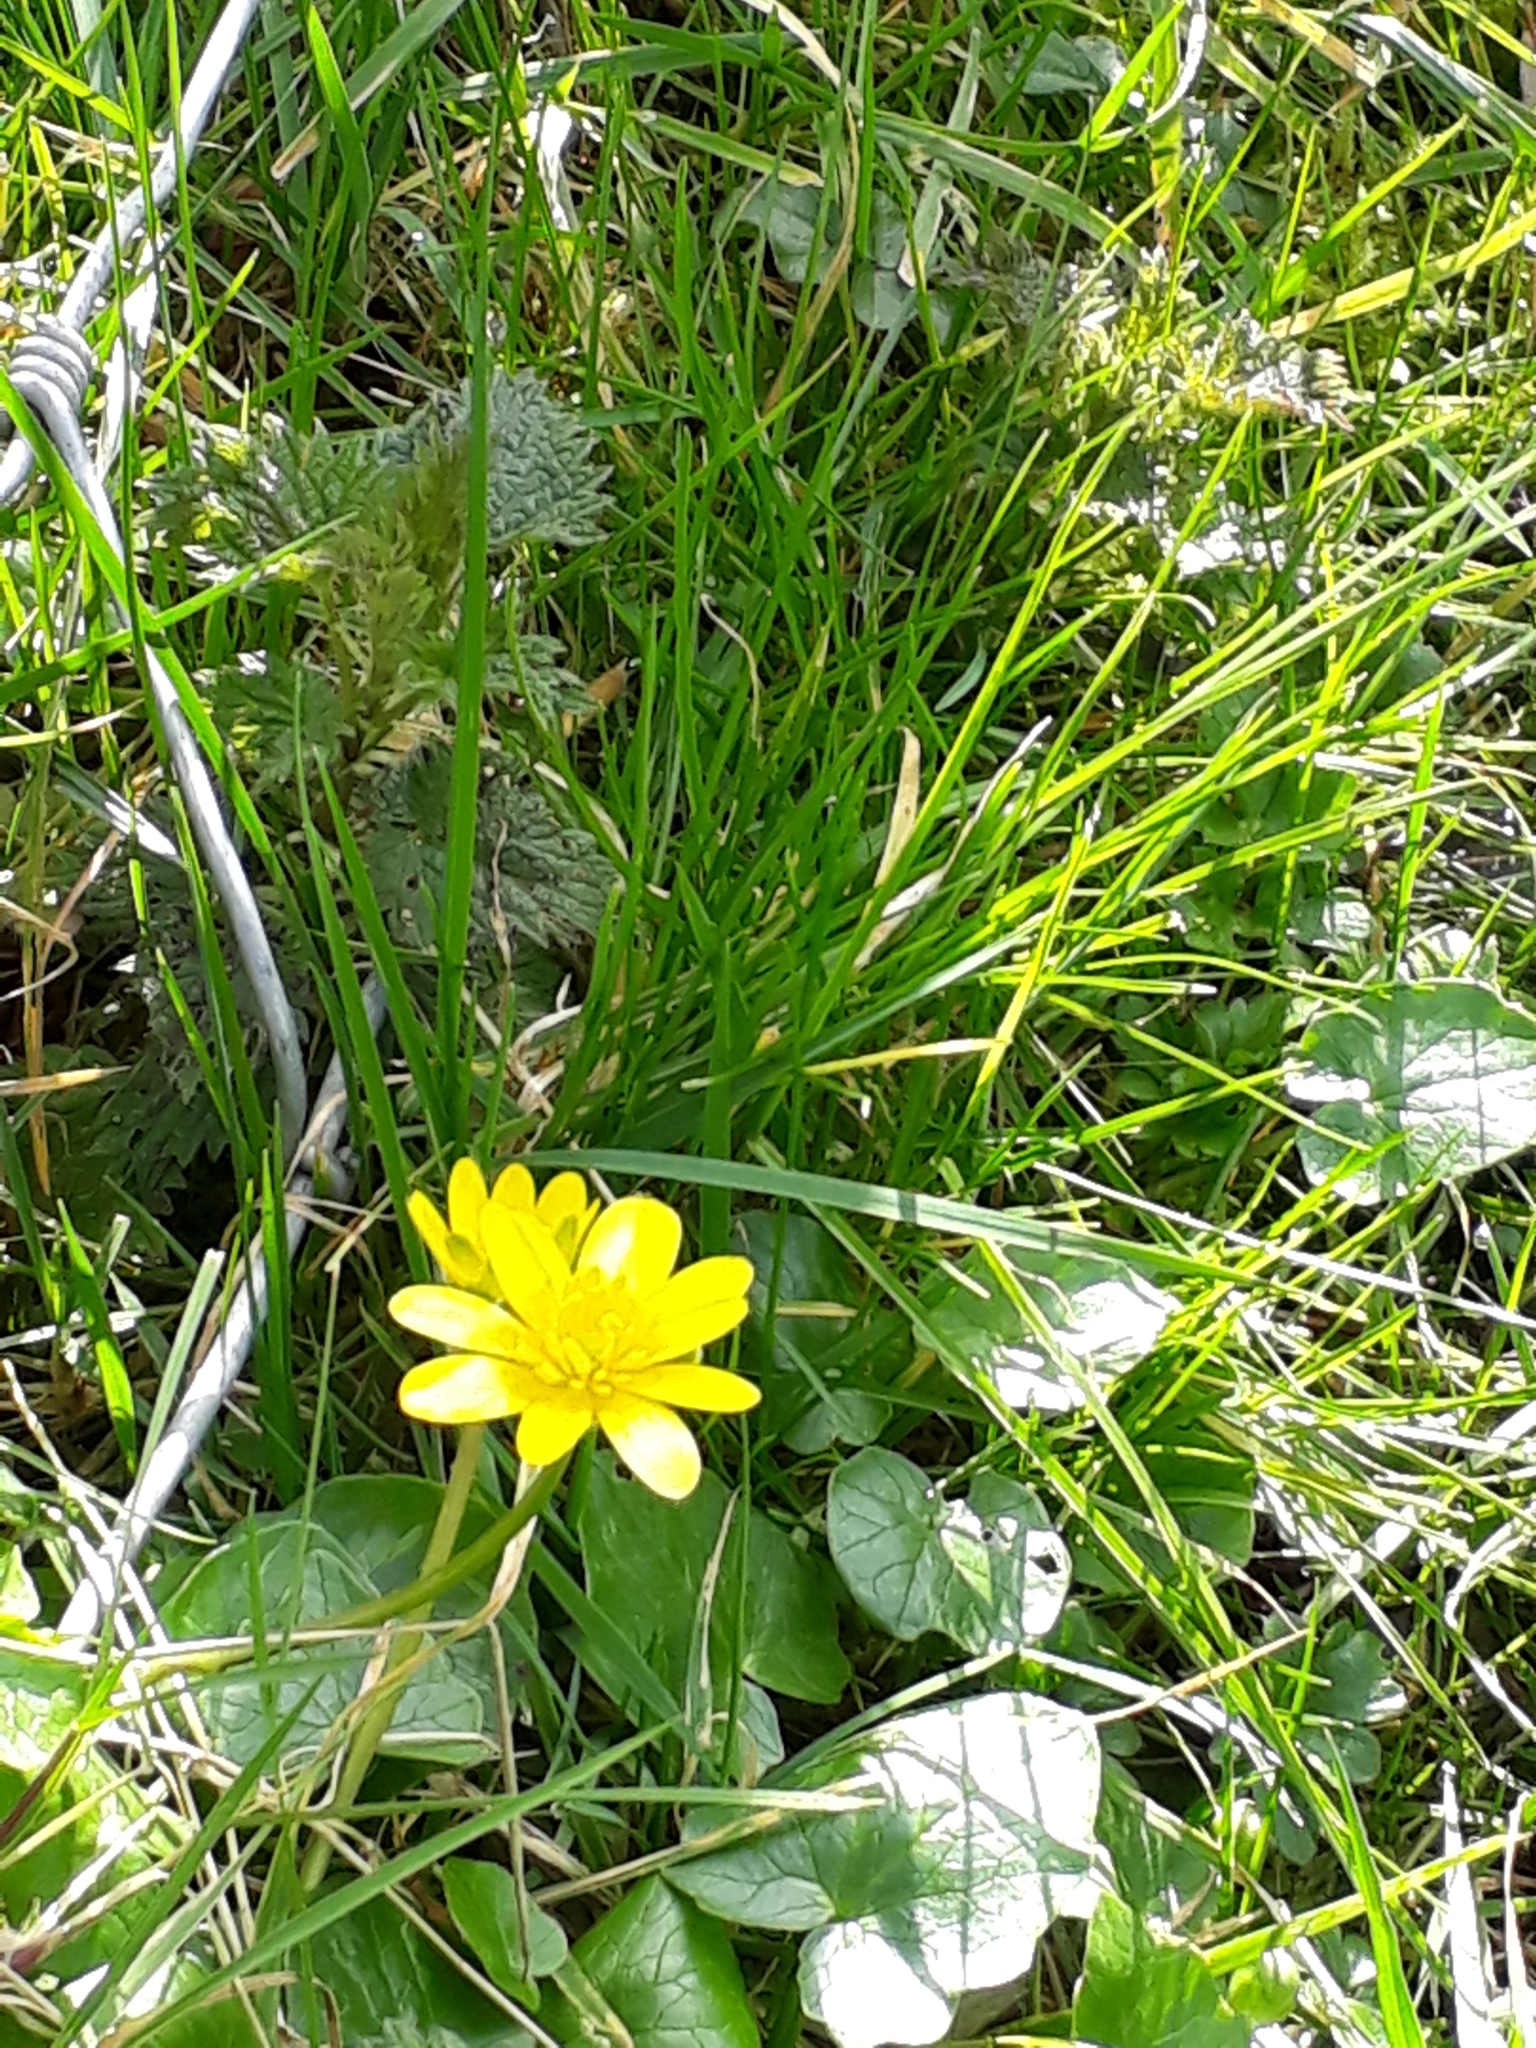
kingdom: Plantae
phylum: Tracheophyta
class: Magnoliopsida
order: Ranunculales
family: Ranunculaceae
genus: Ficaria
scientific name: Ficaria verna
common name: Lesser celandine
